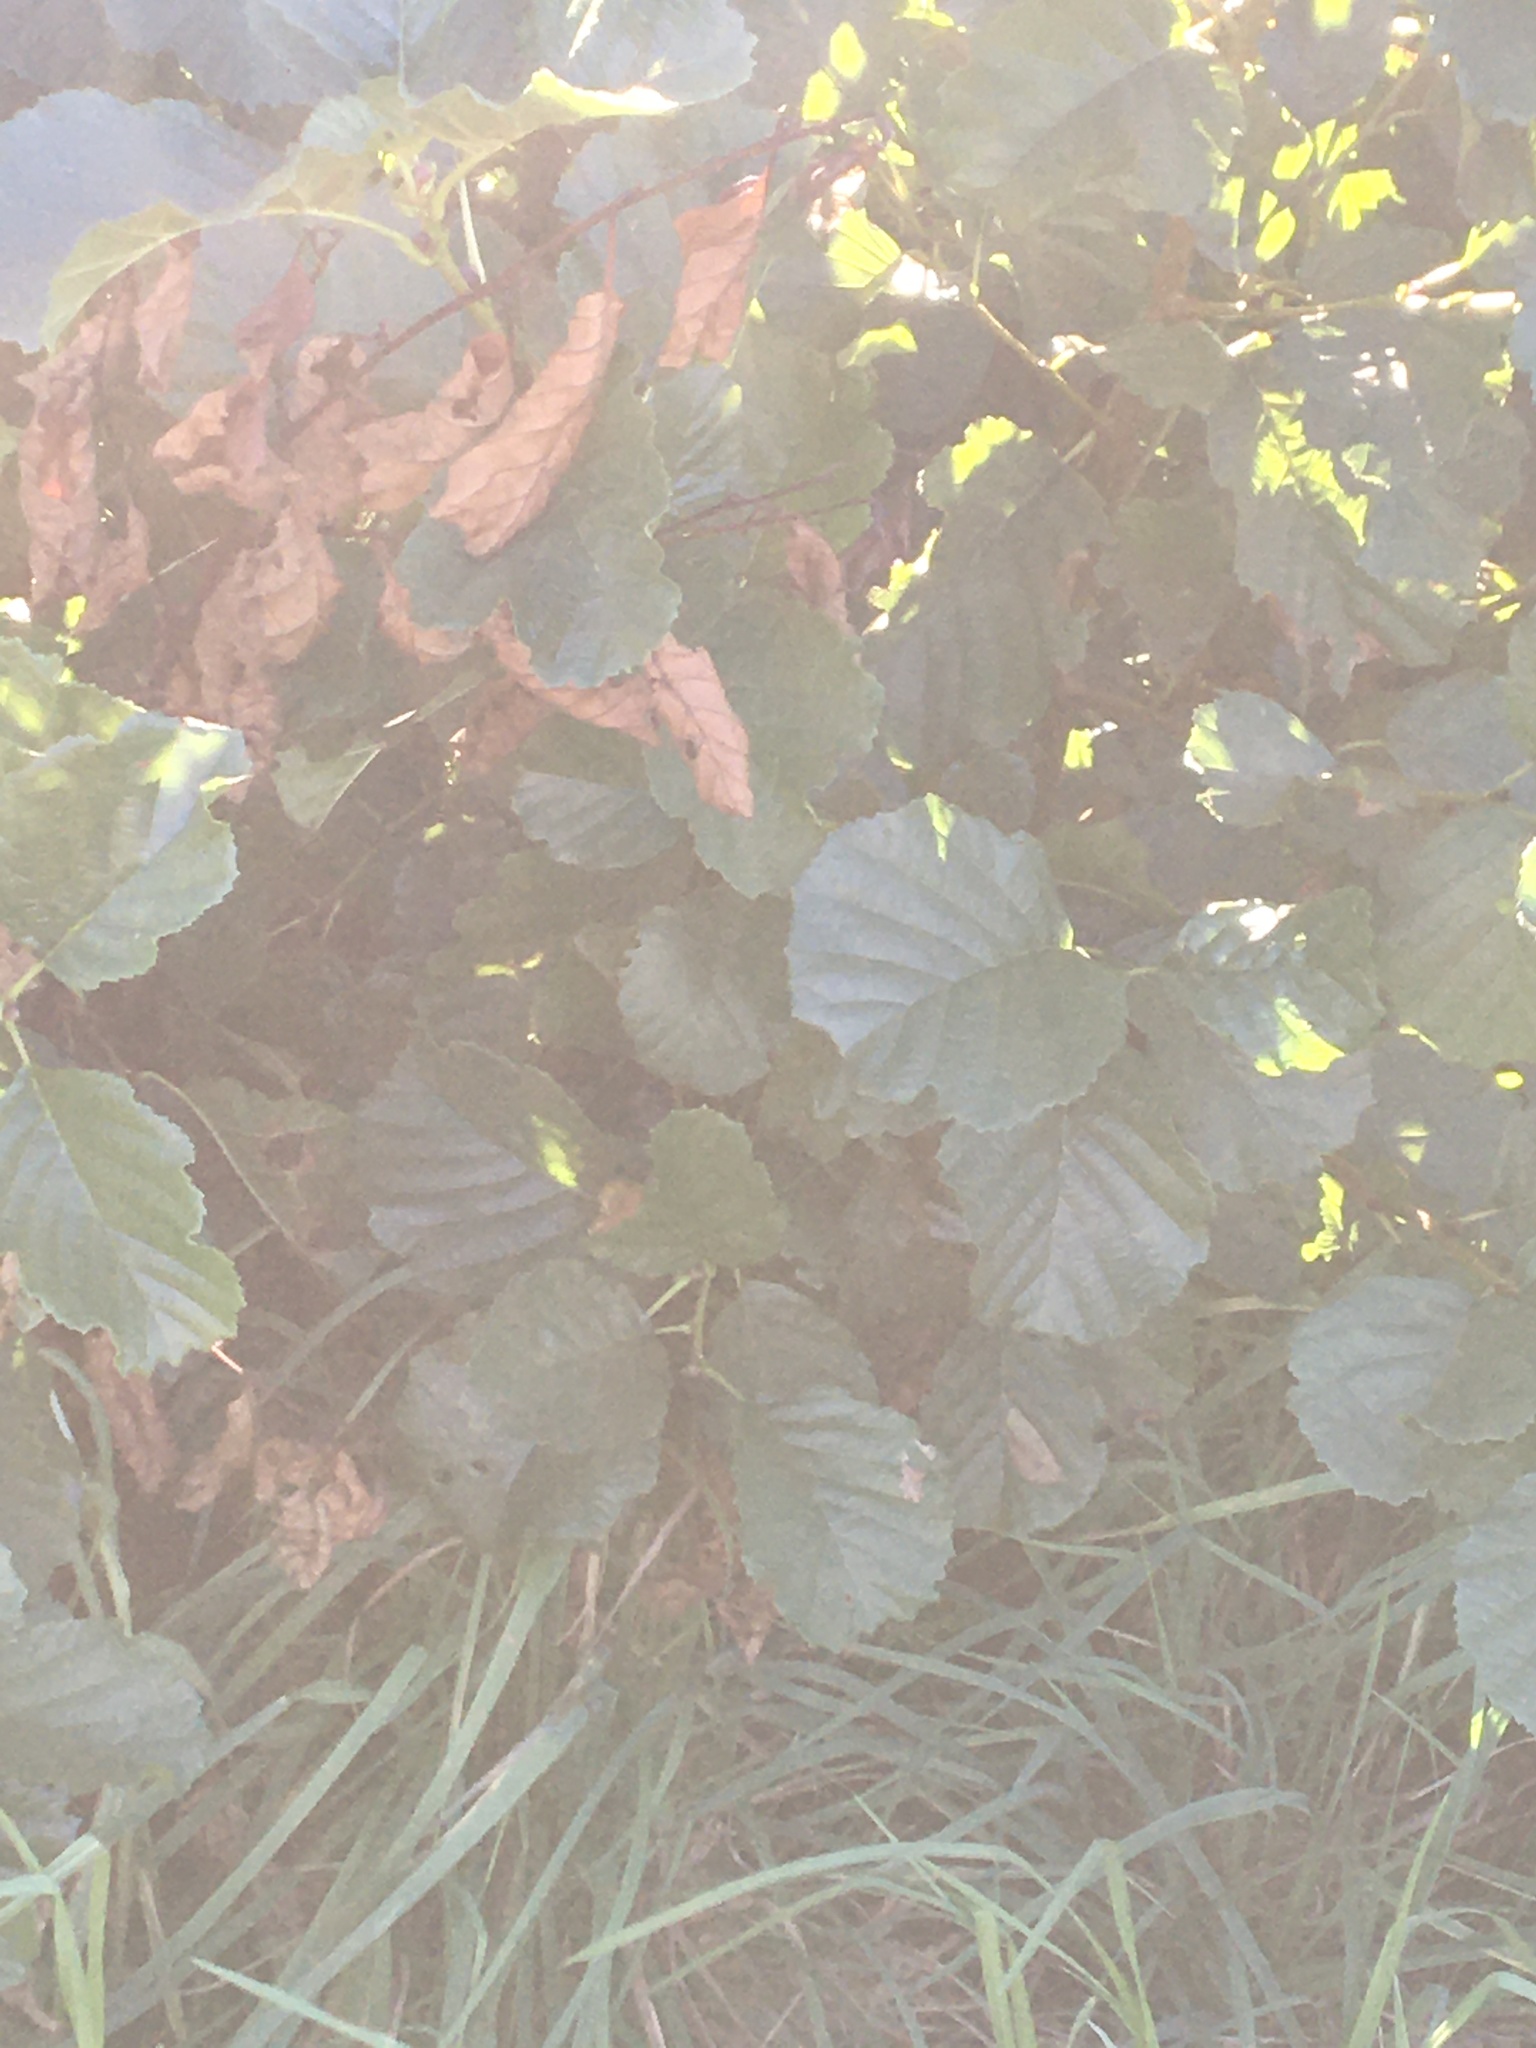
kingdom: Plantae
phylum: Tracheophyta
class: Magnoliopsida
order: Fagales
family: Betulaceae
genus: Alnus
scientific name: Alnus glutinosa
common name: Black alder
